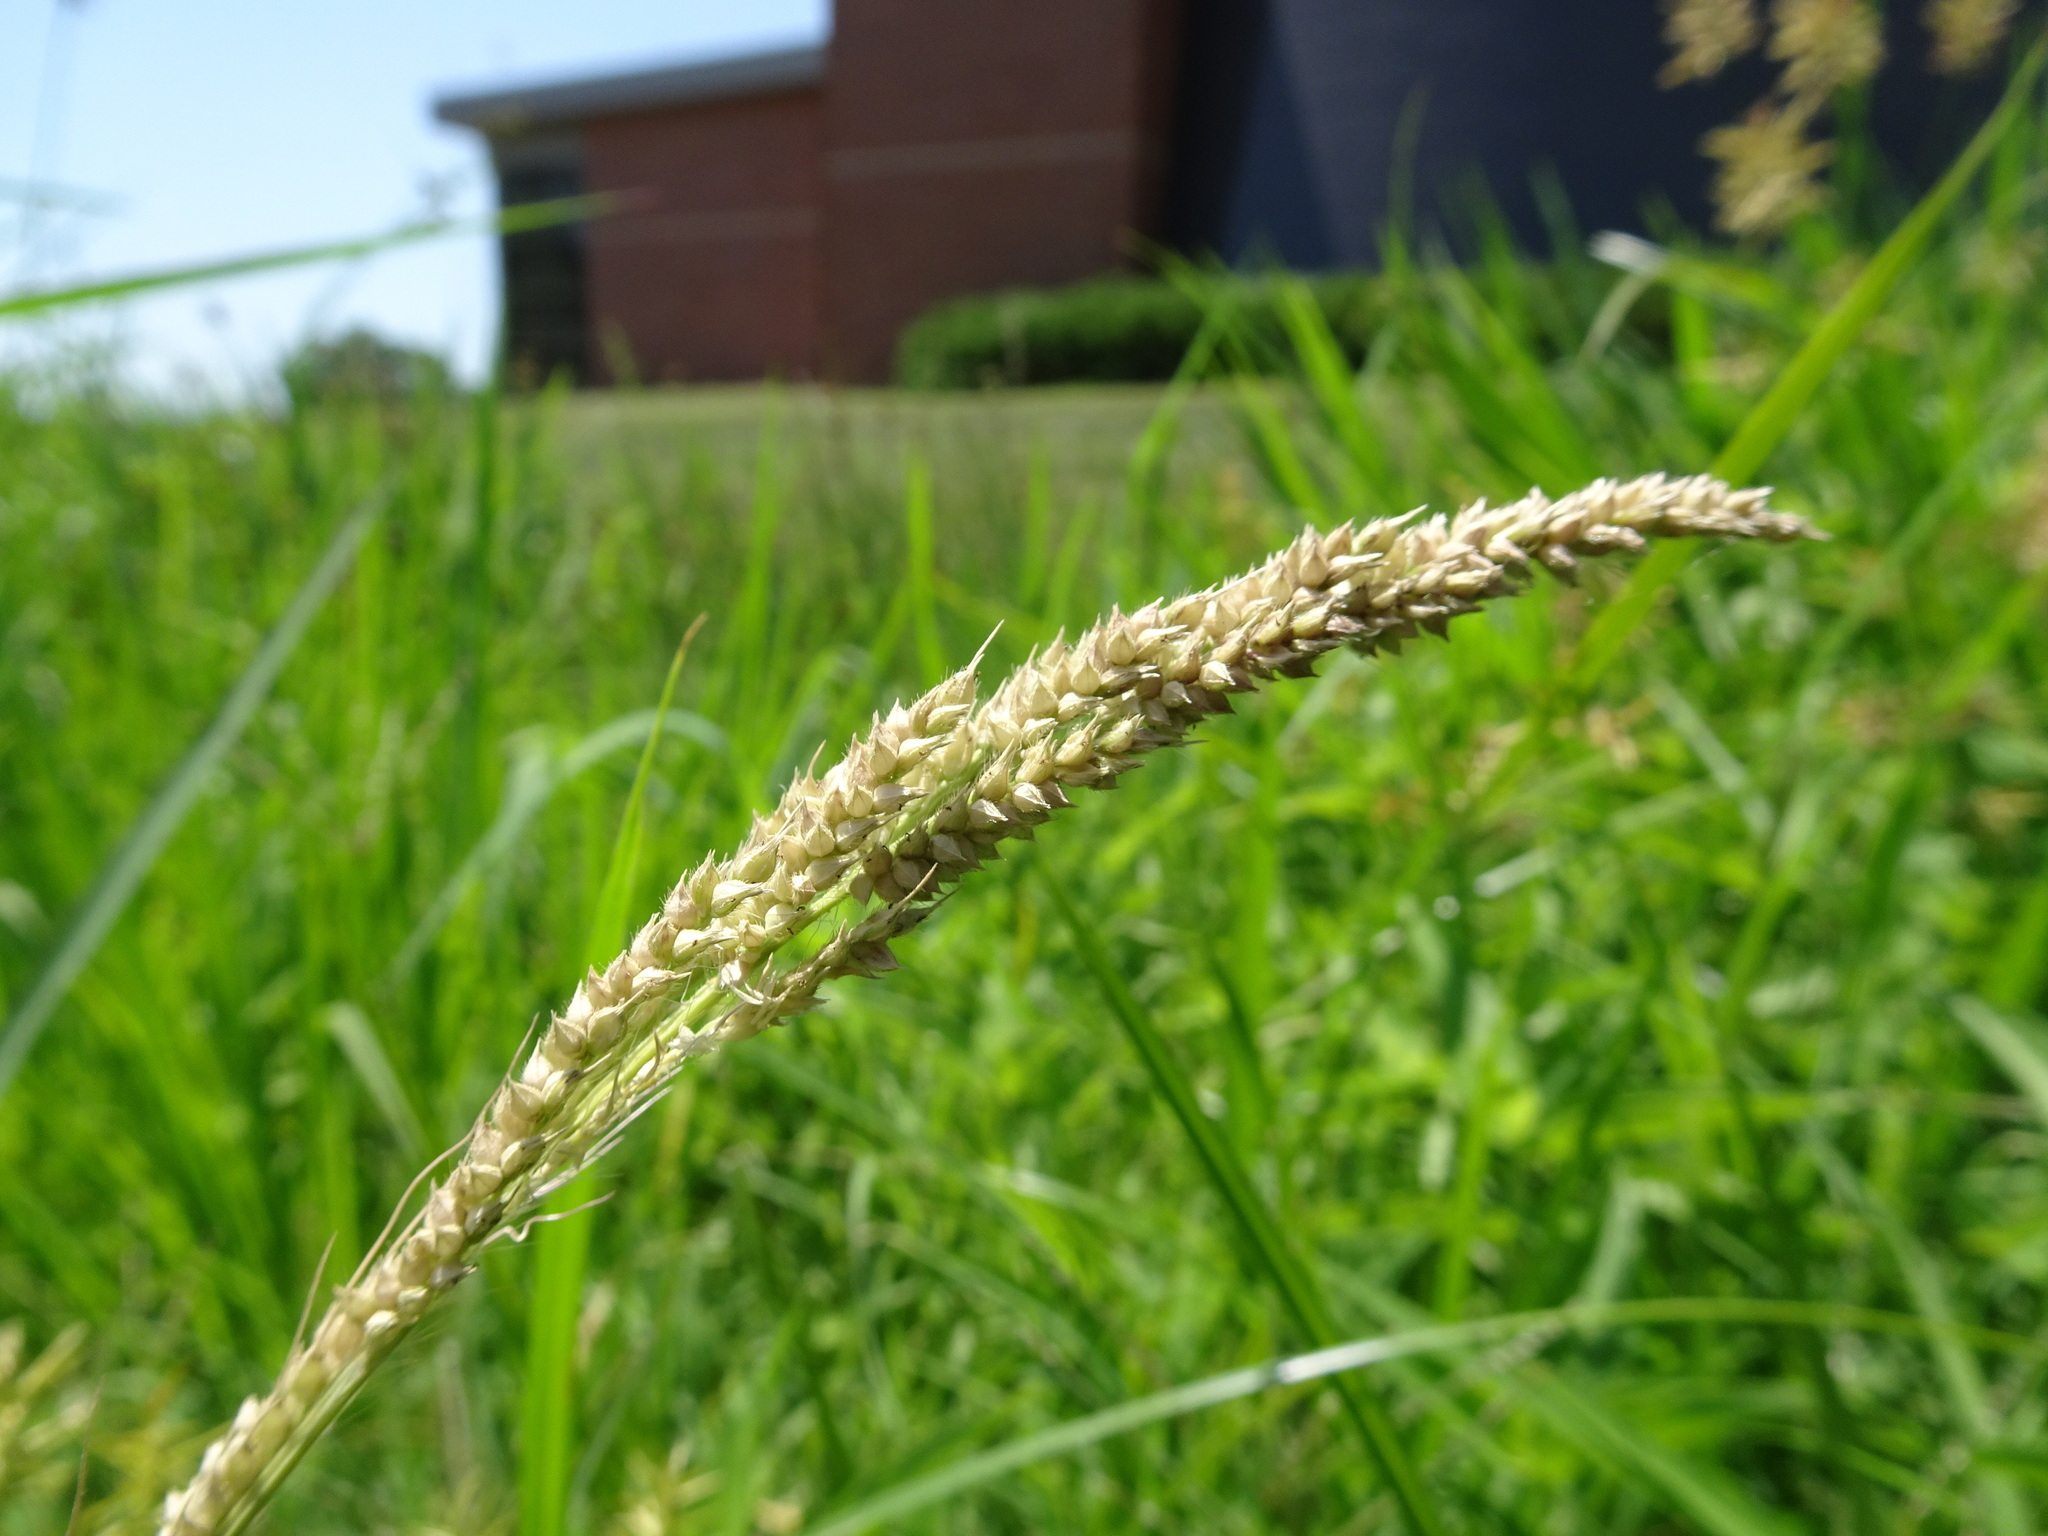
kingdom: Plantae
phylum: Tracheophyta
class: Liliopsida
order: Poales
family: Poaceae
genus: Echinochloa
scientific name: Echinochloa
